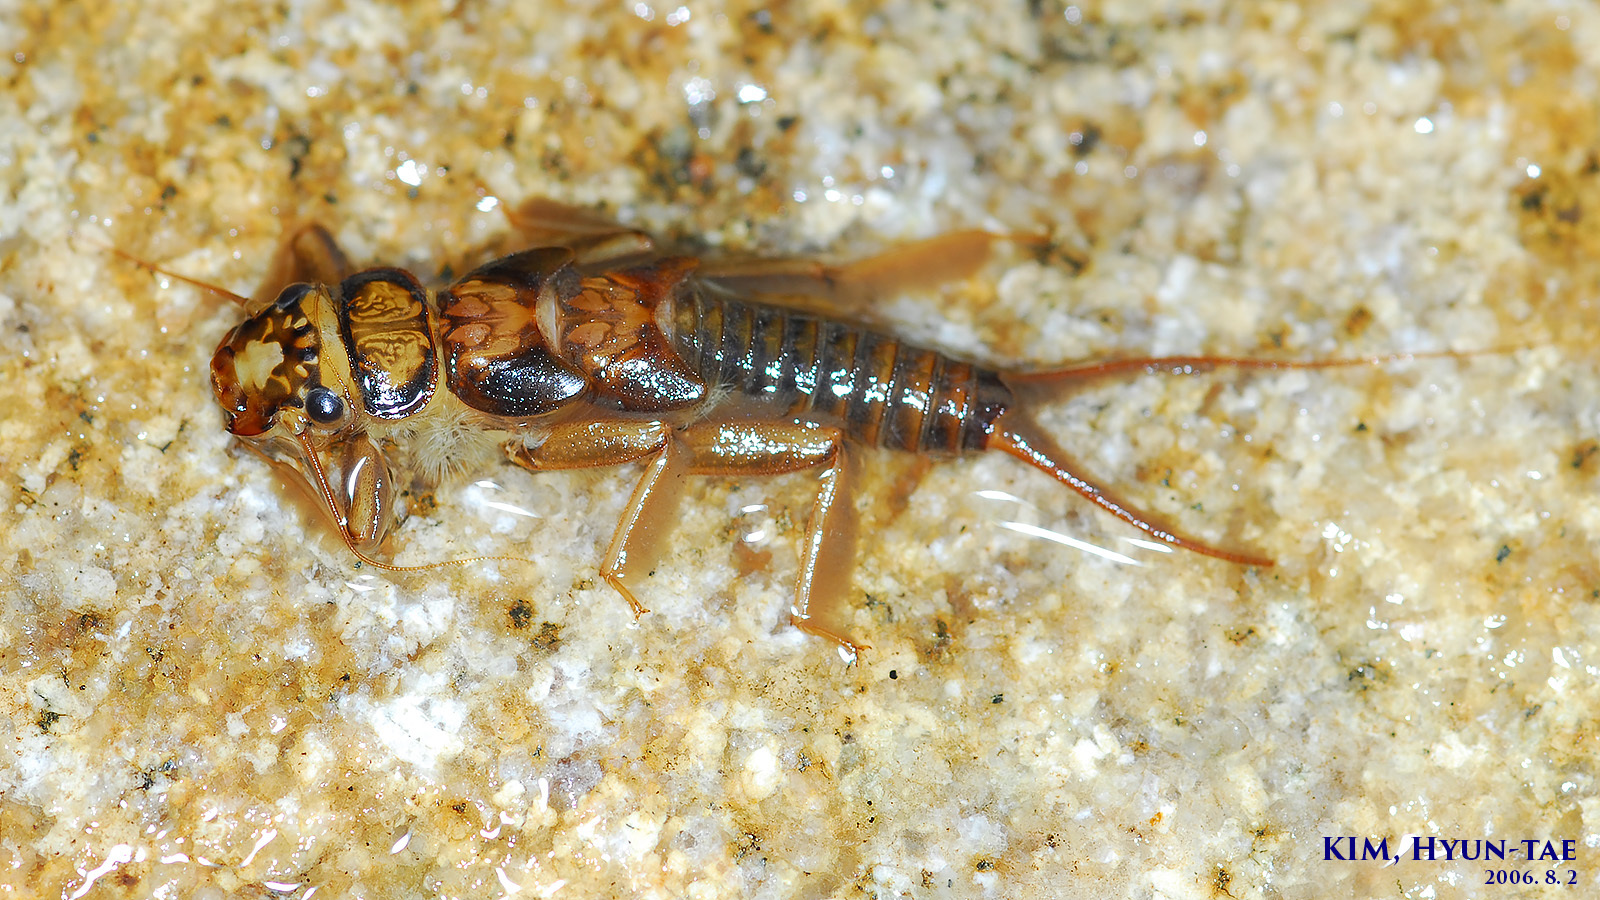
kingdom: Animalia
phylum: Arthropoda
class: Insecta
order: Plecoptera
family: Perlidae
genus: Kamimuria
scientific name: Kamimuria coreana
